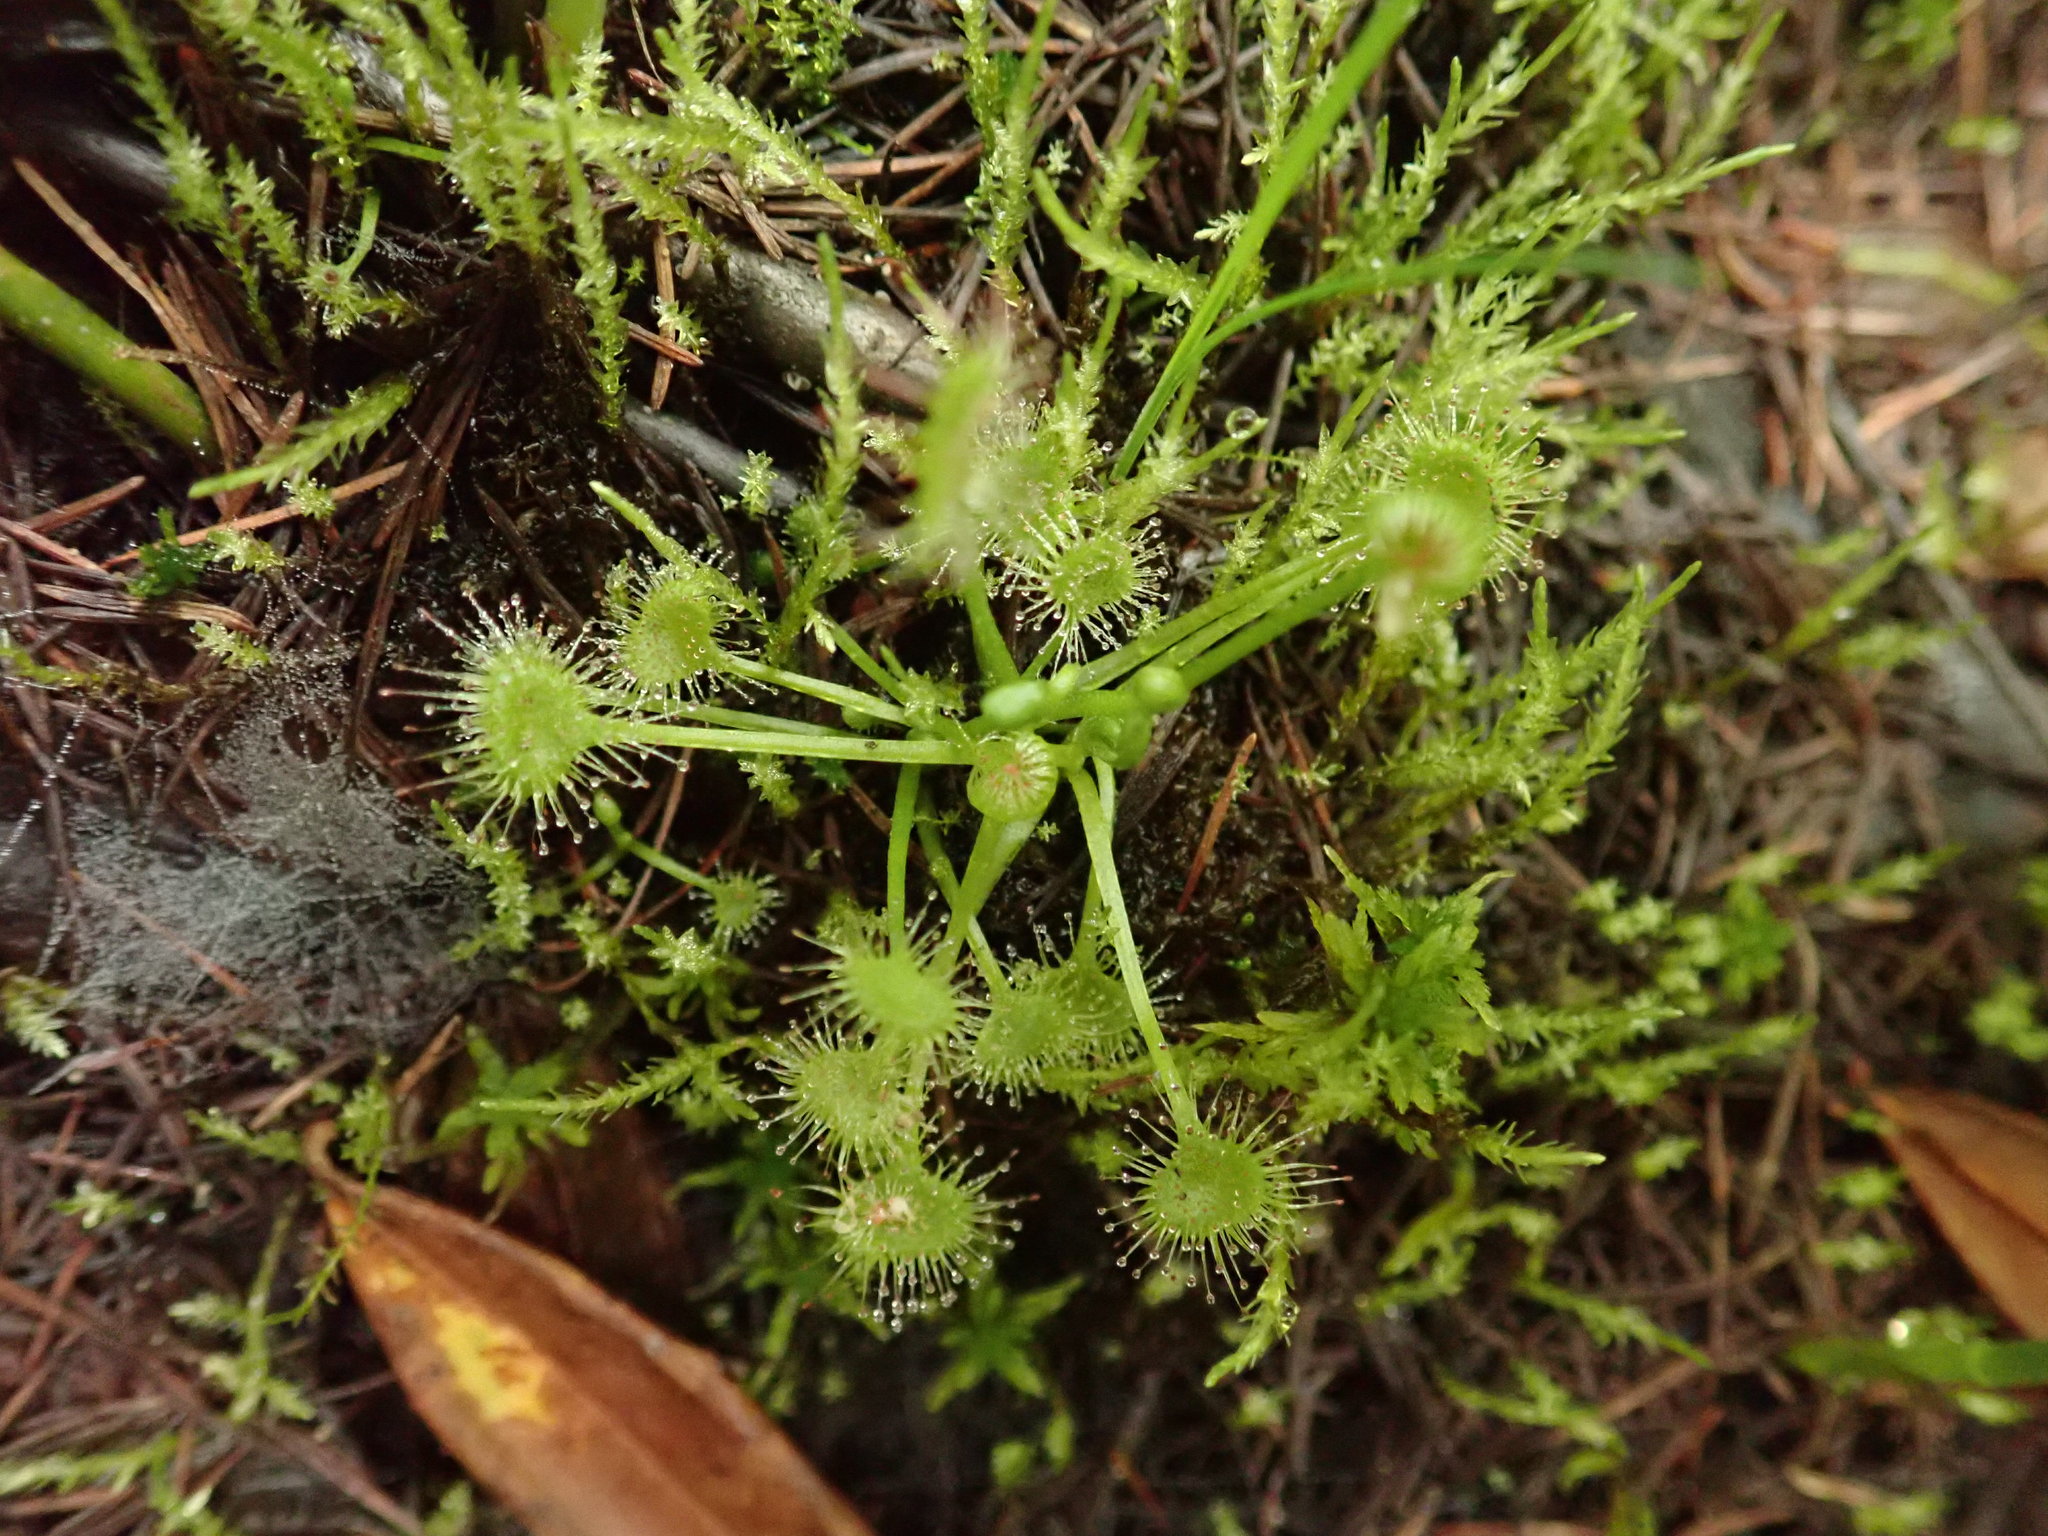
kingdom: Plantae
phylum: Tracheophyta
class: Magnoliopsida
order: Caryophyllales
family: Droseraceae
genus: Drosera
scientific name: Drosera rotundifolia
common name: Round-leaved sundew
